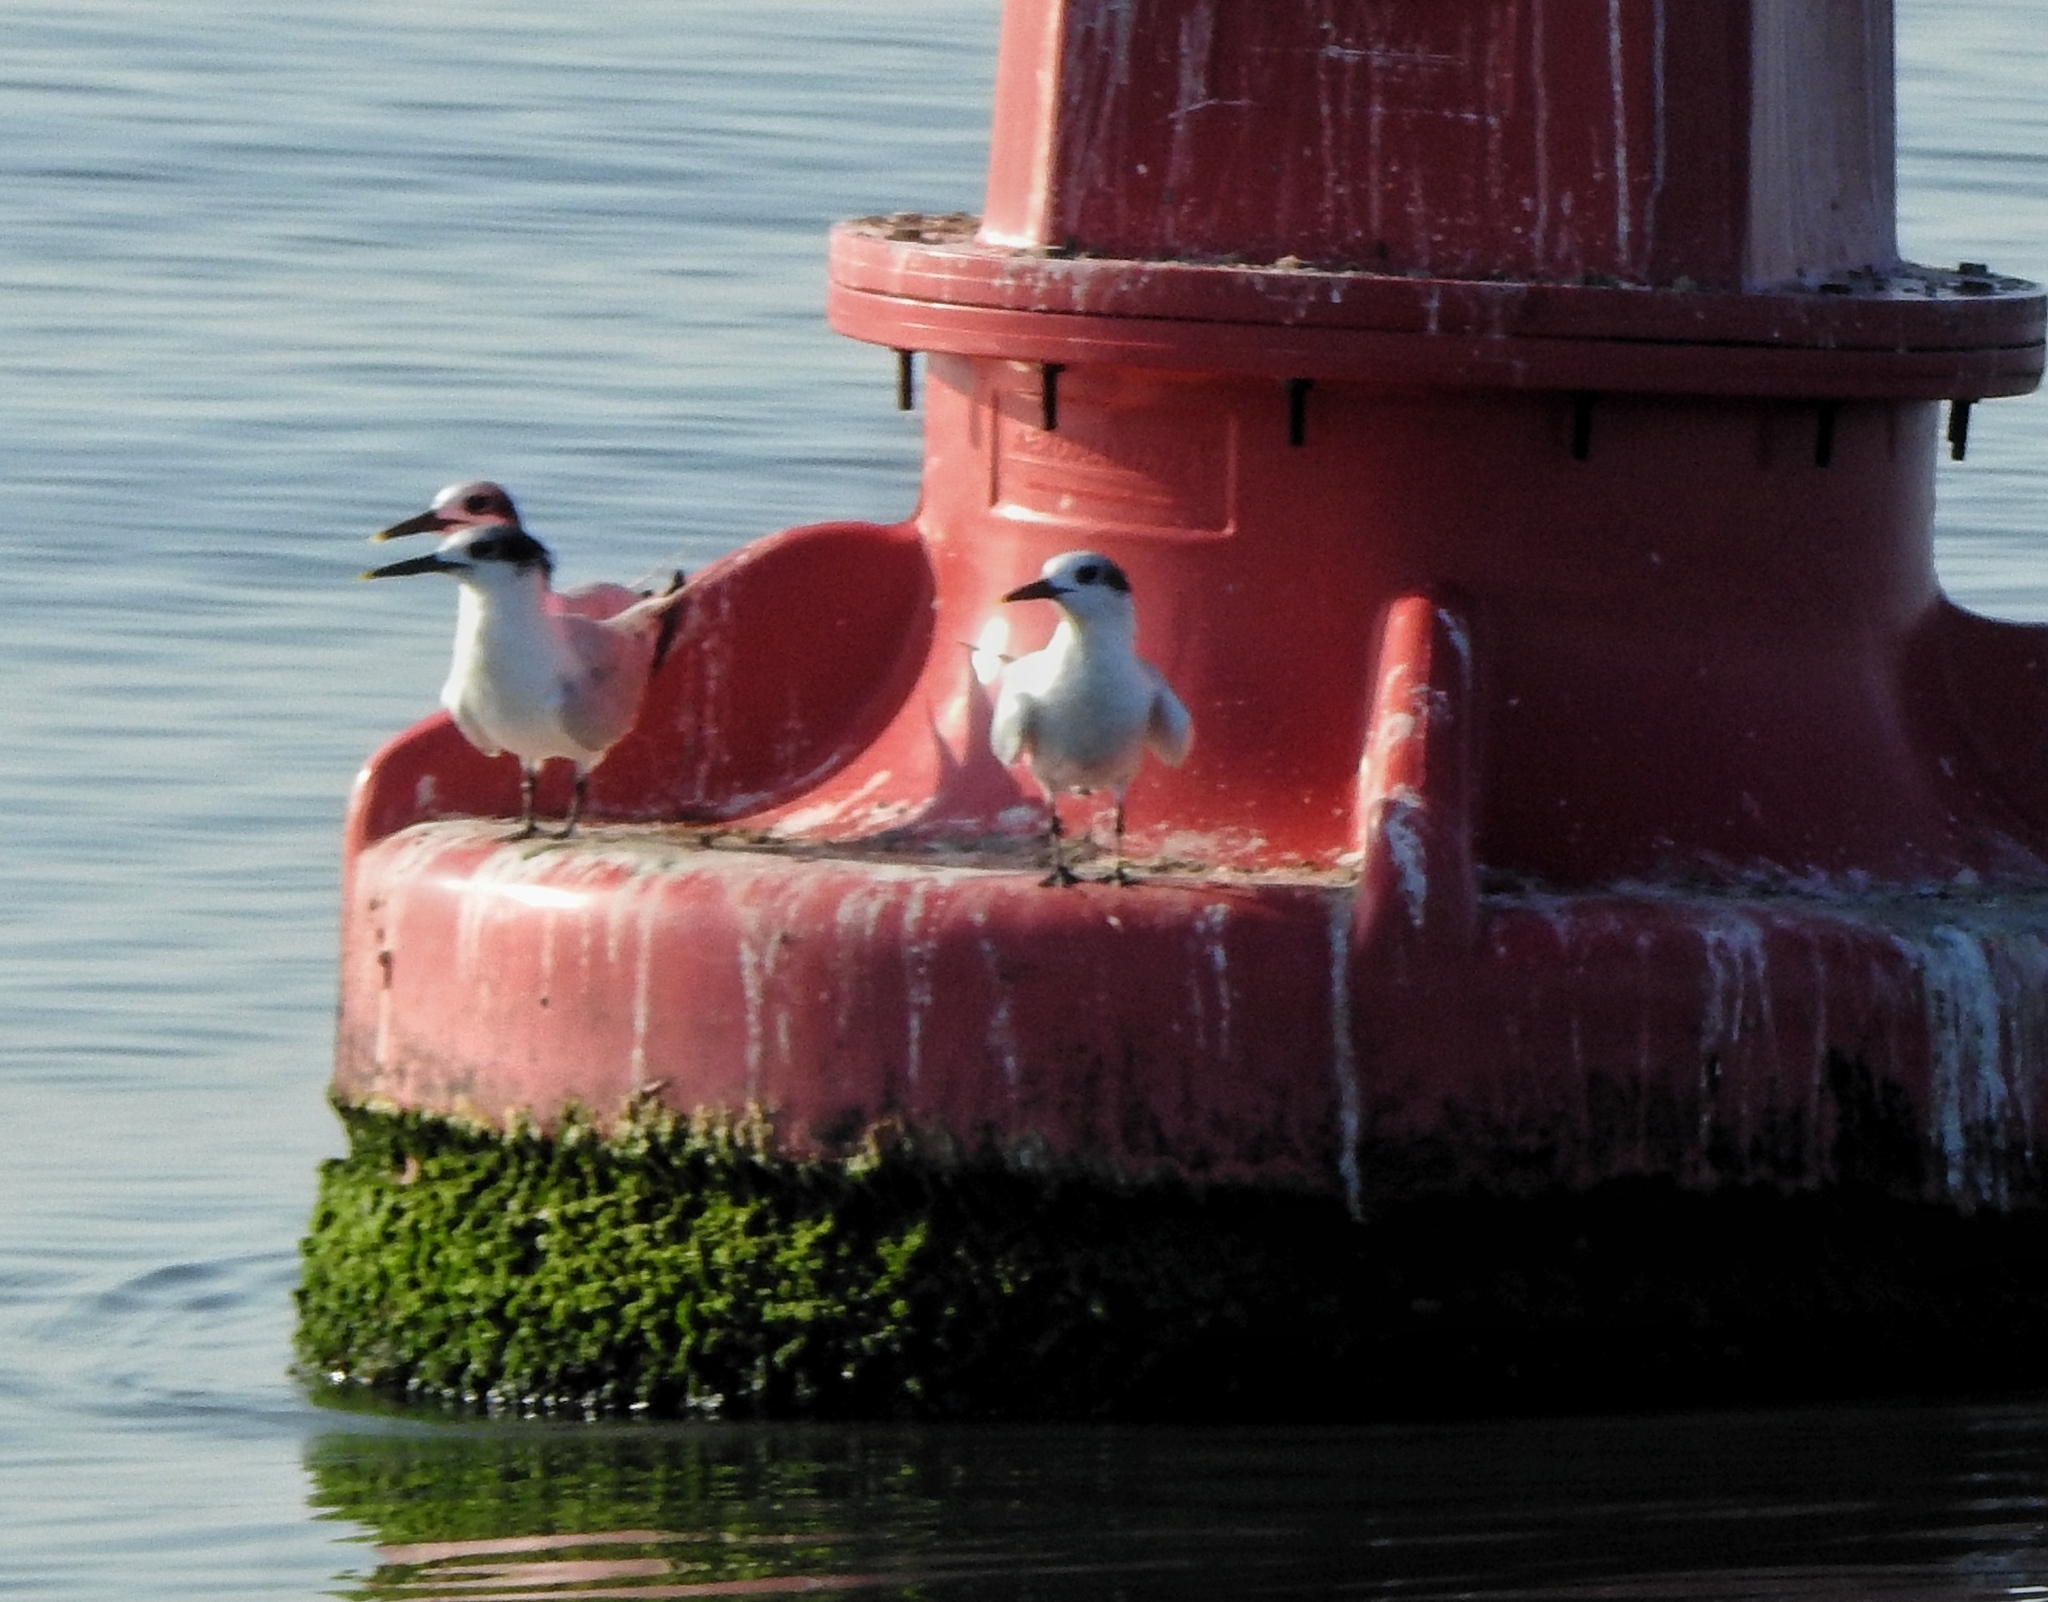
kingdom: Animalia
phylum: Chordata
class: Aves
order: Charadriiformes
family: Laridae
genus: Thalasseus
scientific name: Thalasseus sandvicensis
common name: Sandwich tern
